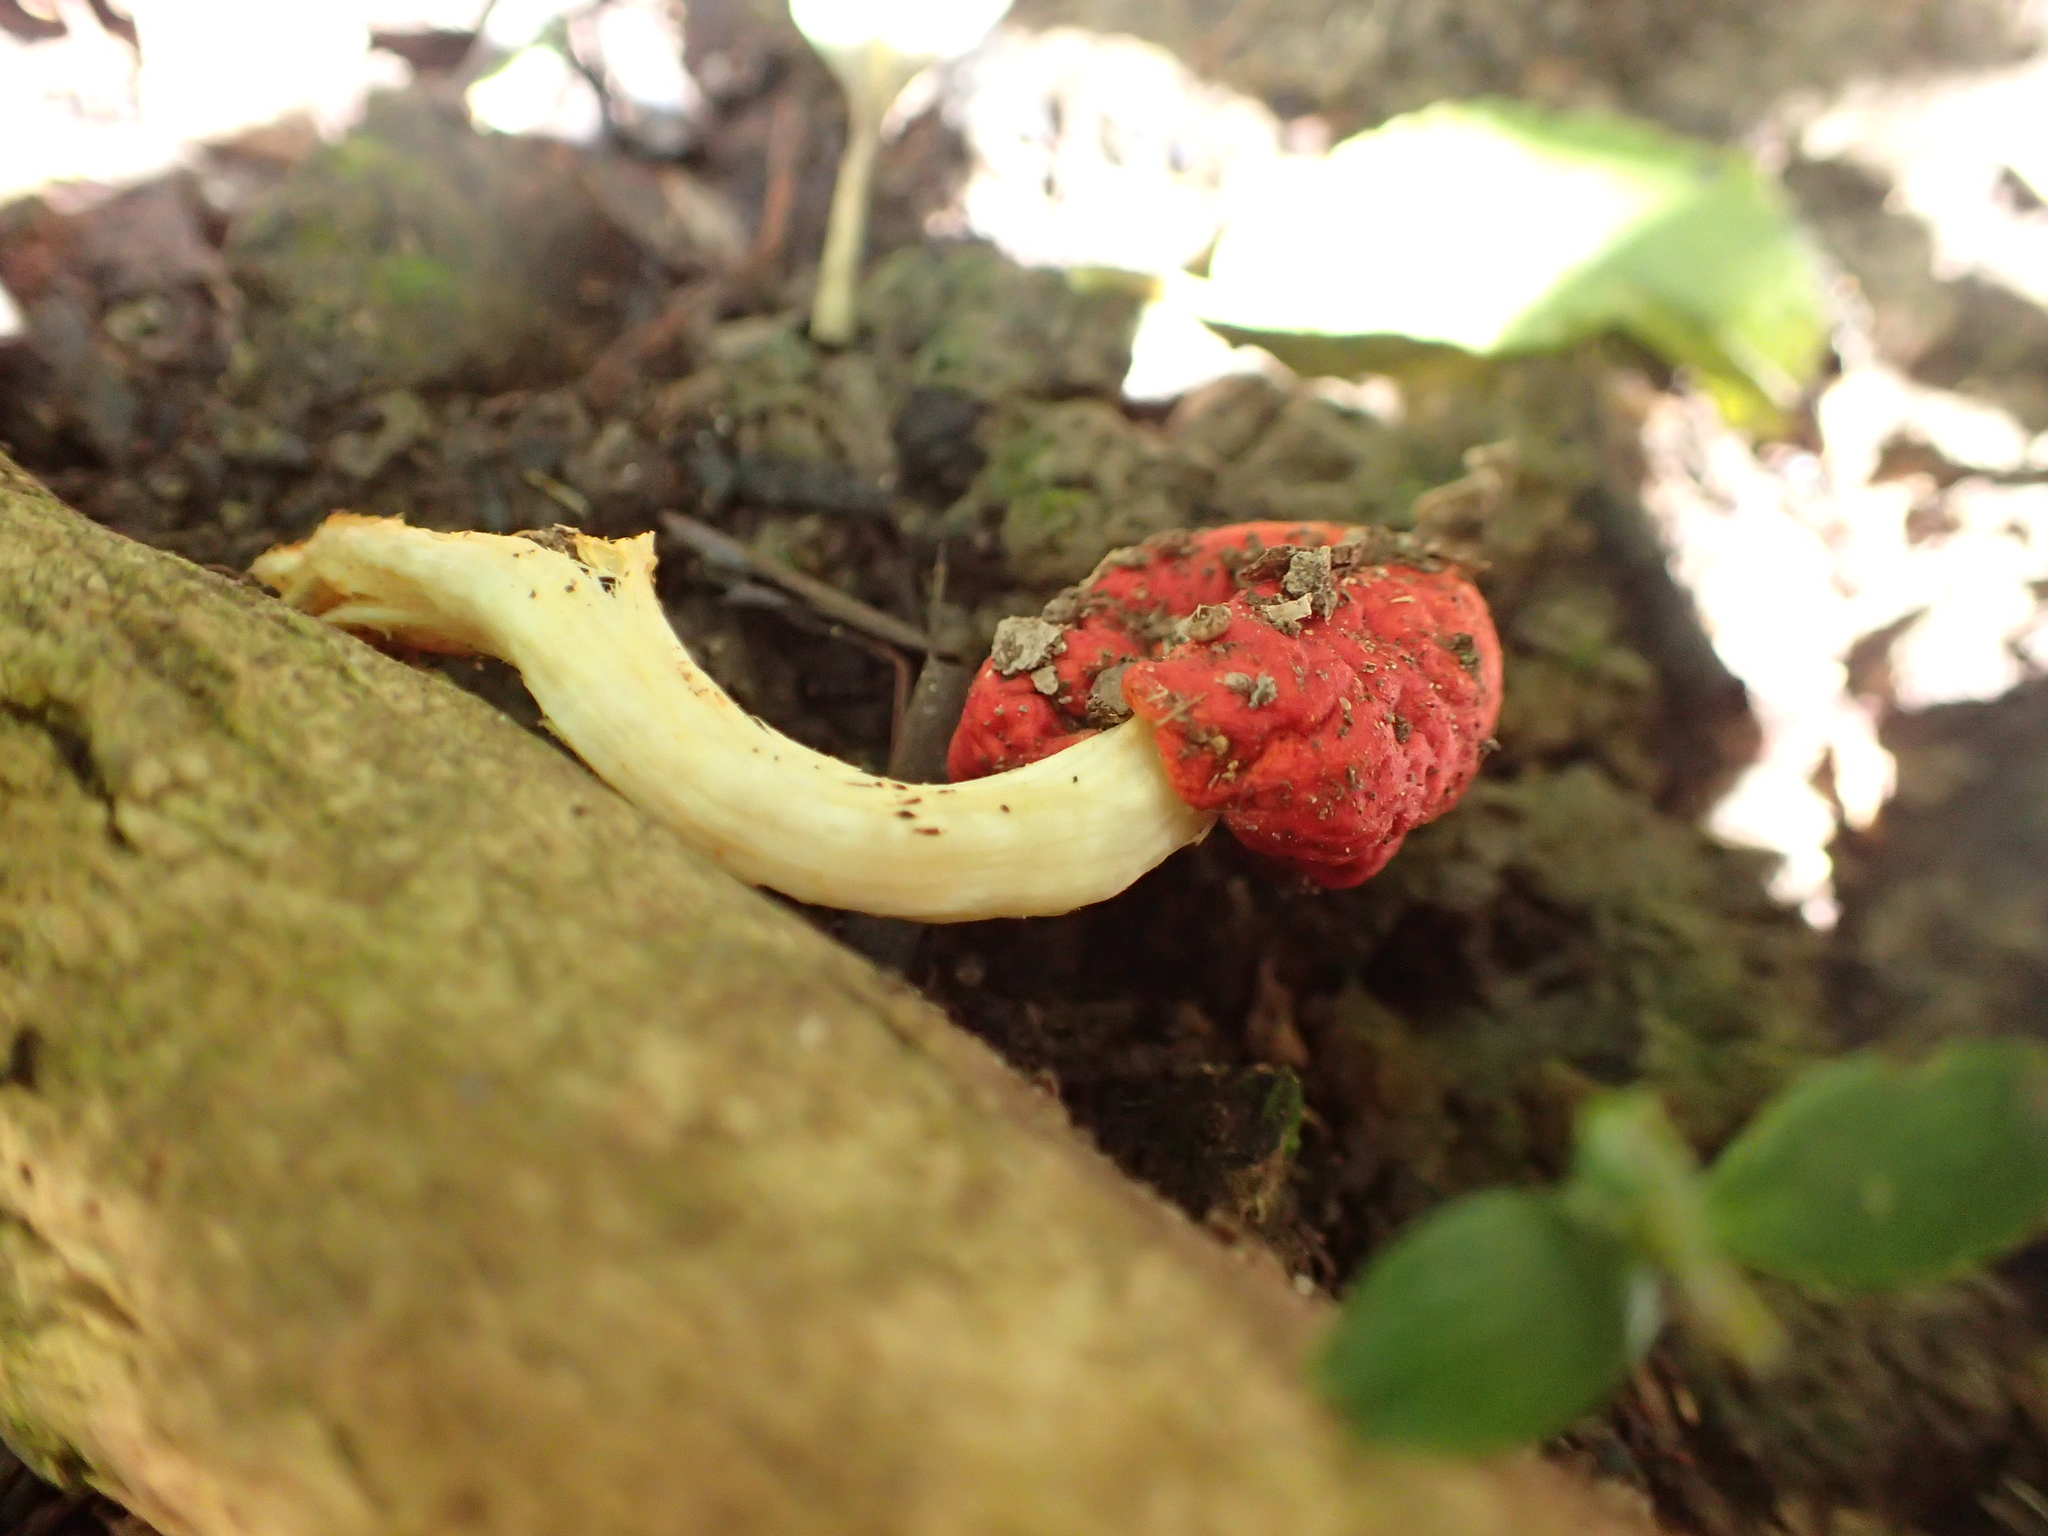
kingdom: Fungi
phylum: Basidiomycota
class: Agaricomycetes
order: Agaricales
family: Strophariaceae
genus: Leratiomyces
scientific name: Leratiomyces erythrocephalus
